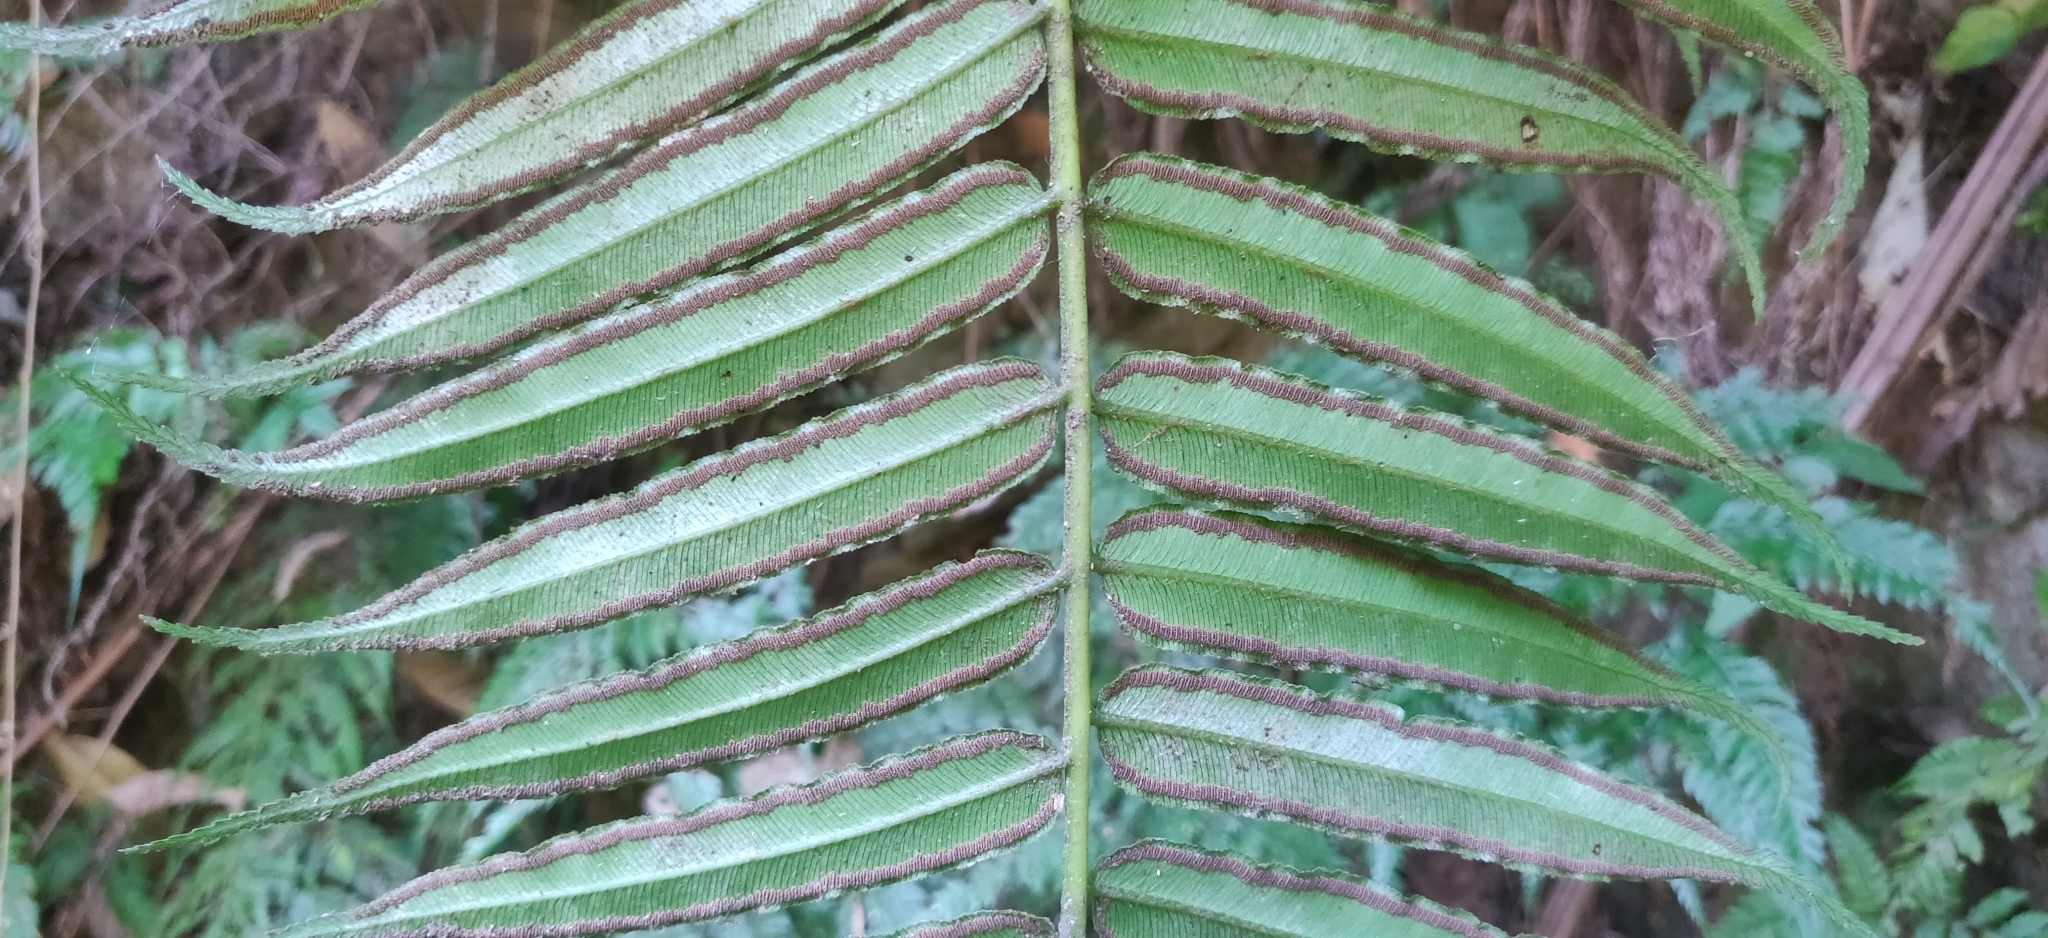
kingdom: Plantae
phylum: Tracheophyta
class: Polypodiopsida
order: Marattiales
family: Marattiaceae
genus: Angiopteris
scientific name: Angiopteris evecta
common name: Mule's-foot fern
